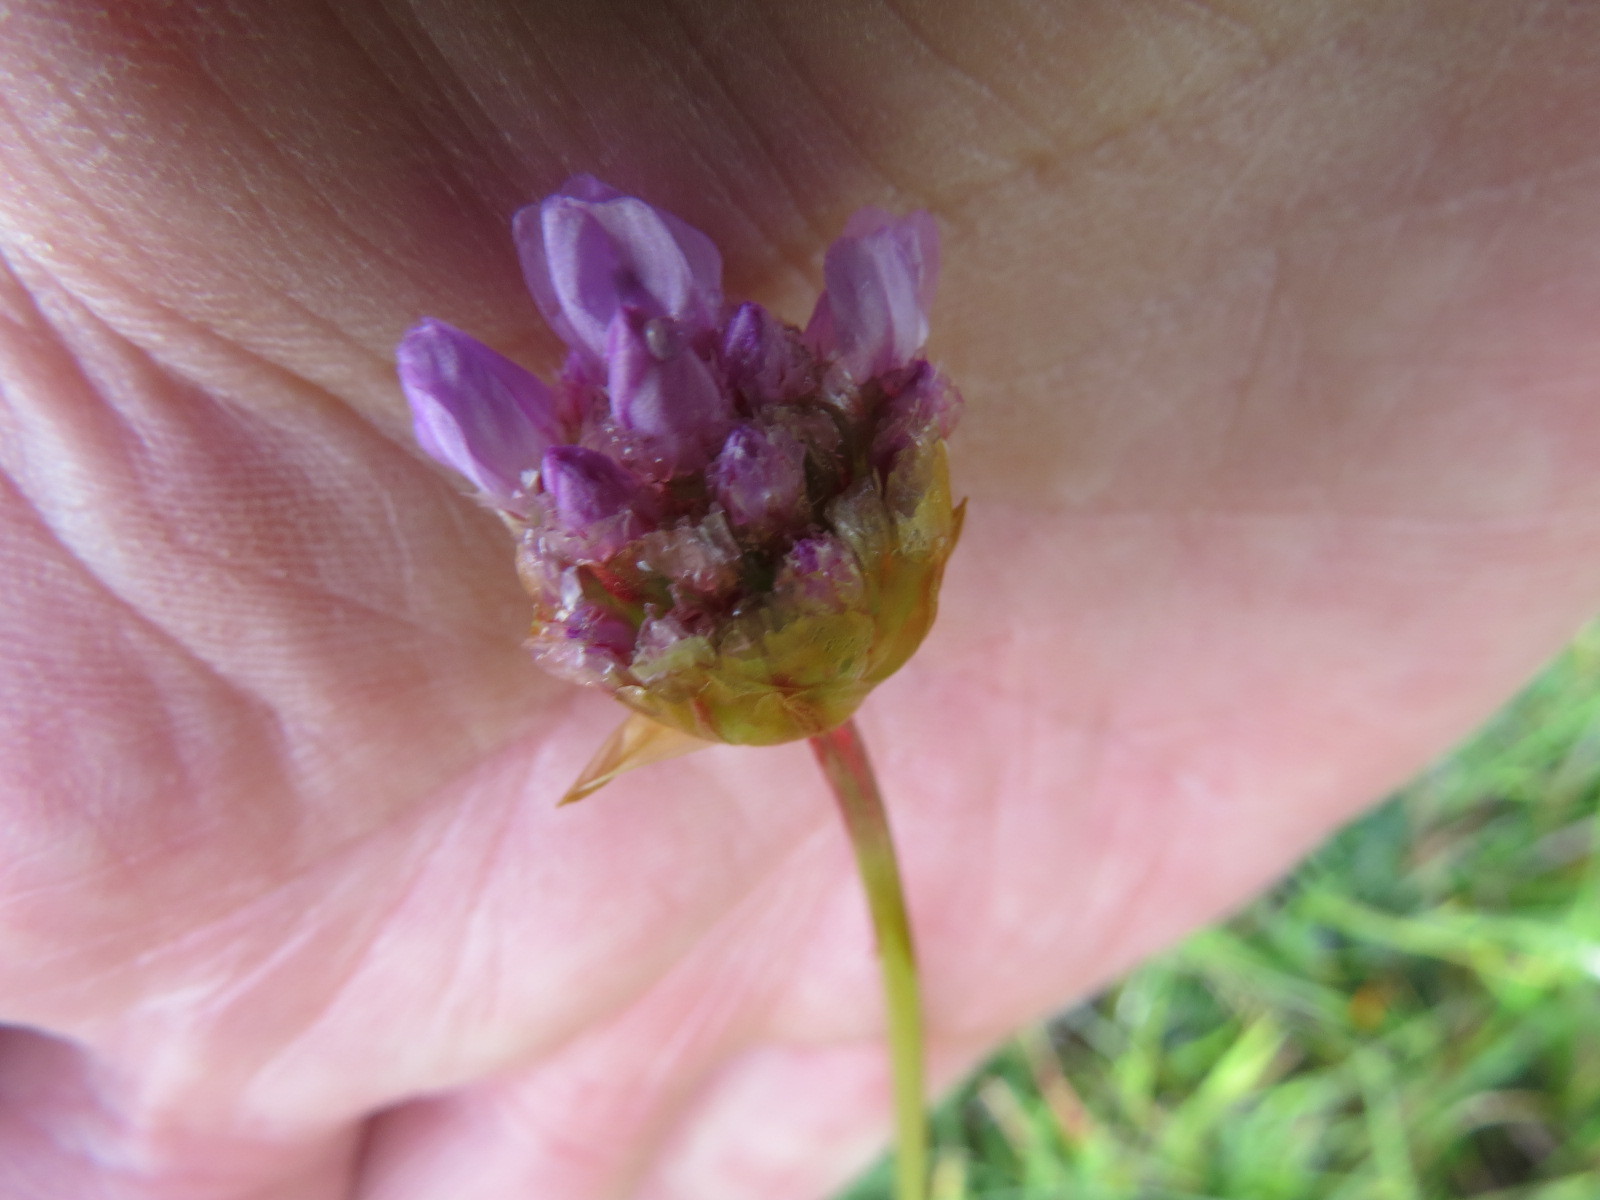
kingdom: Plantae
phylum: Tracheophyta
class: Magnoliopsida
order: Caryophyllales
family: Plumbaginaceae
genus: Armeria
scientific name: Armeria maritima
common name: Thrift
